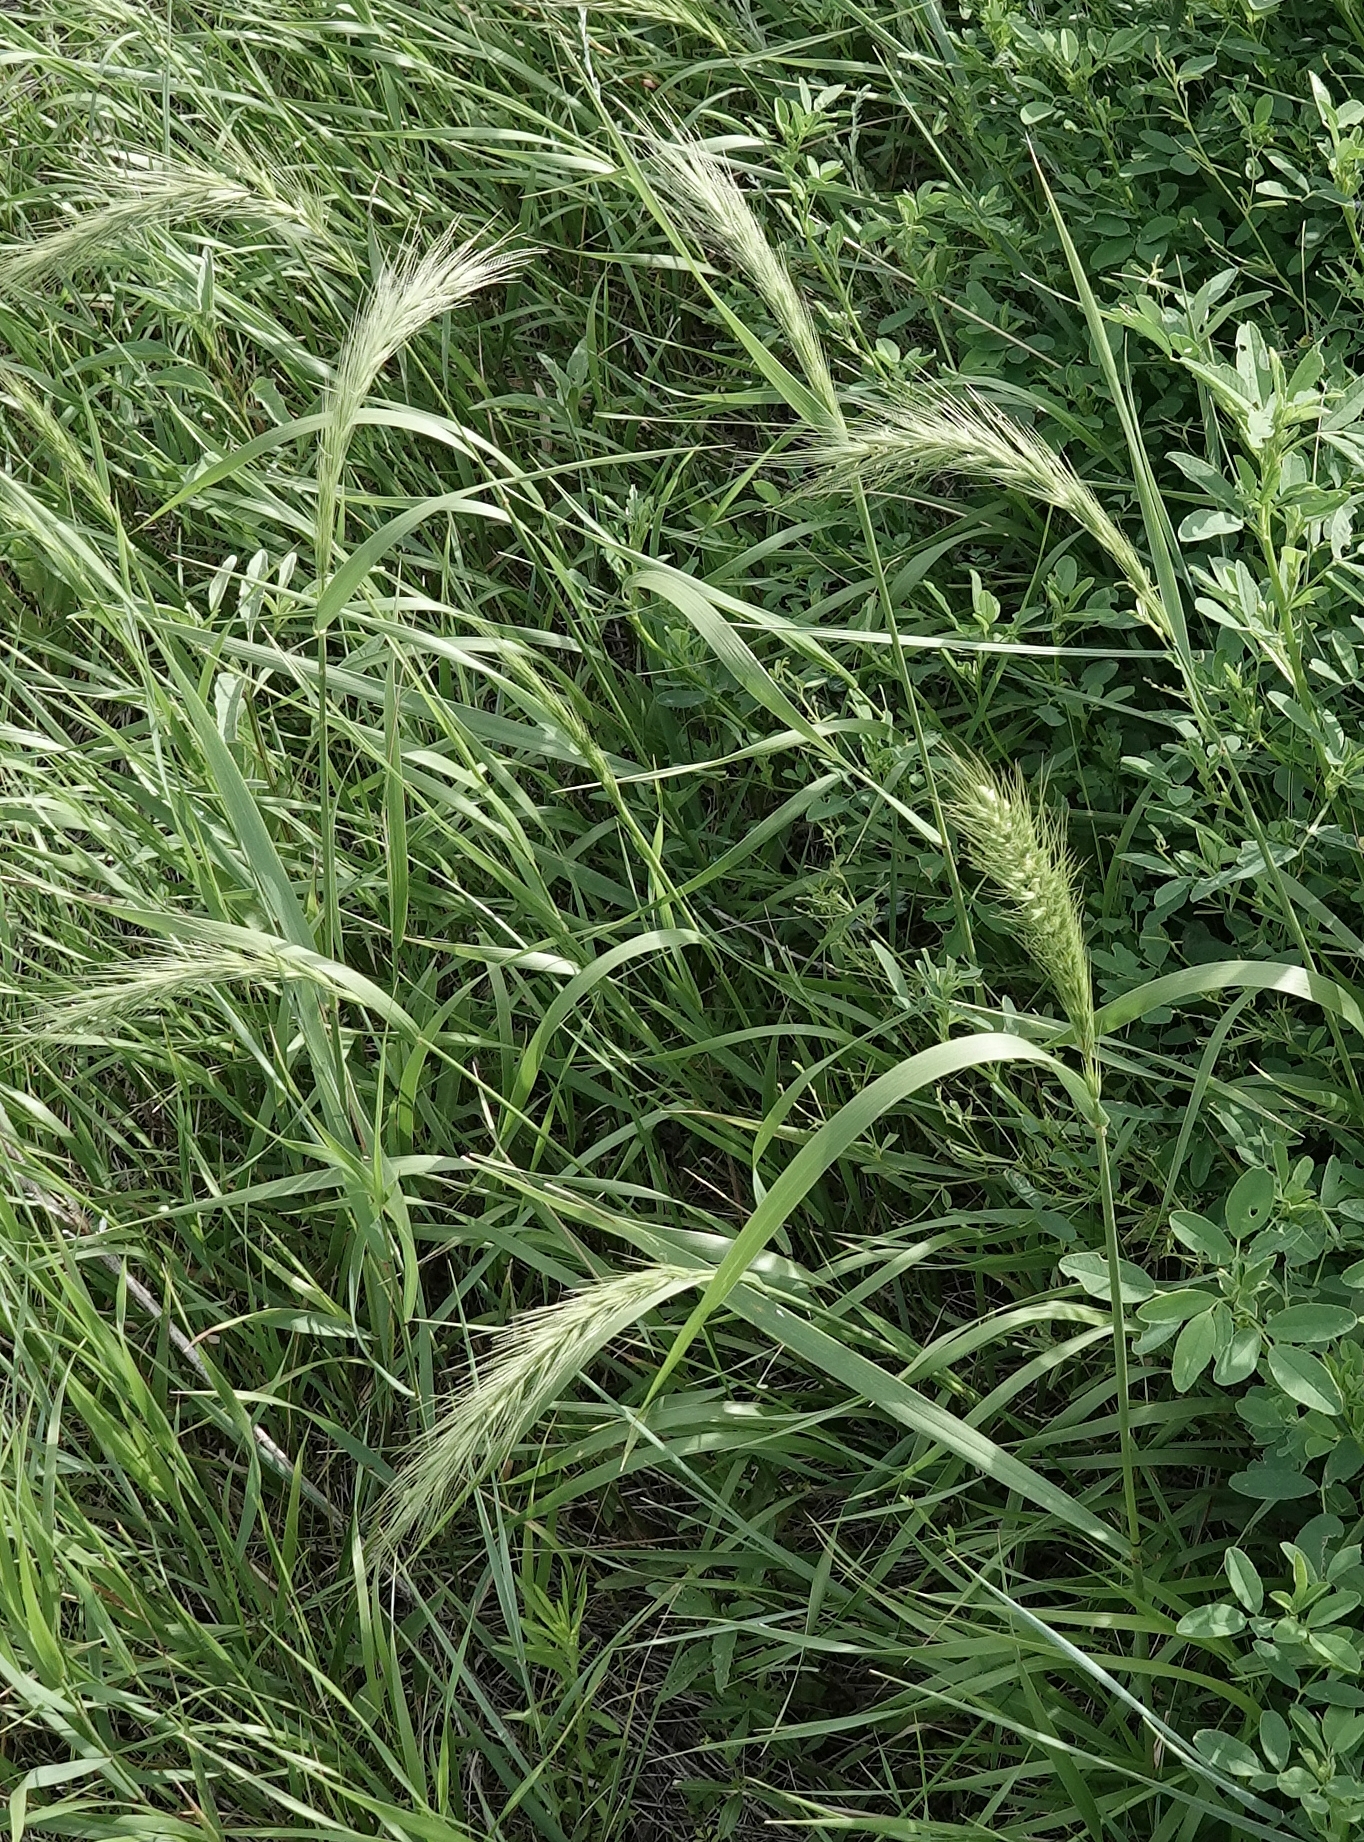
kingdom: Plantae
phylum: Tracheophyta
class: Liliopsida
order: Poales
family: Poaceae
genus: Elymus
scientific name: Elymus canadensis
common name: Canada wild rye
